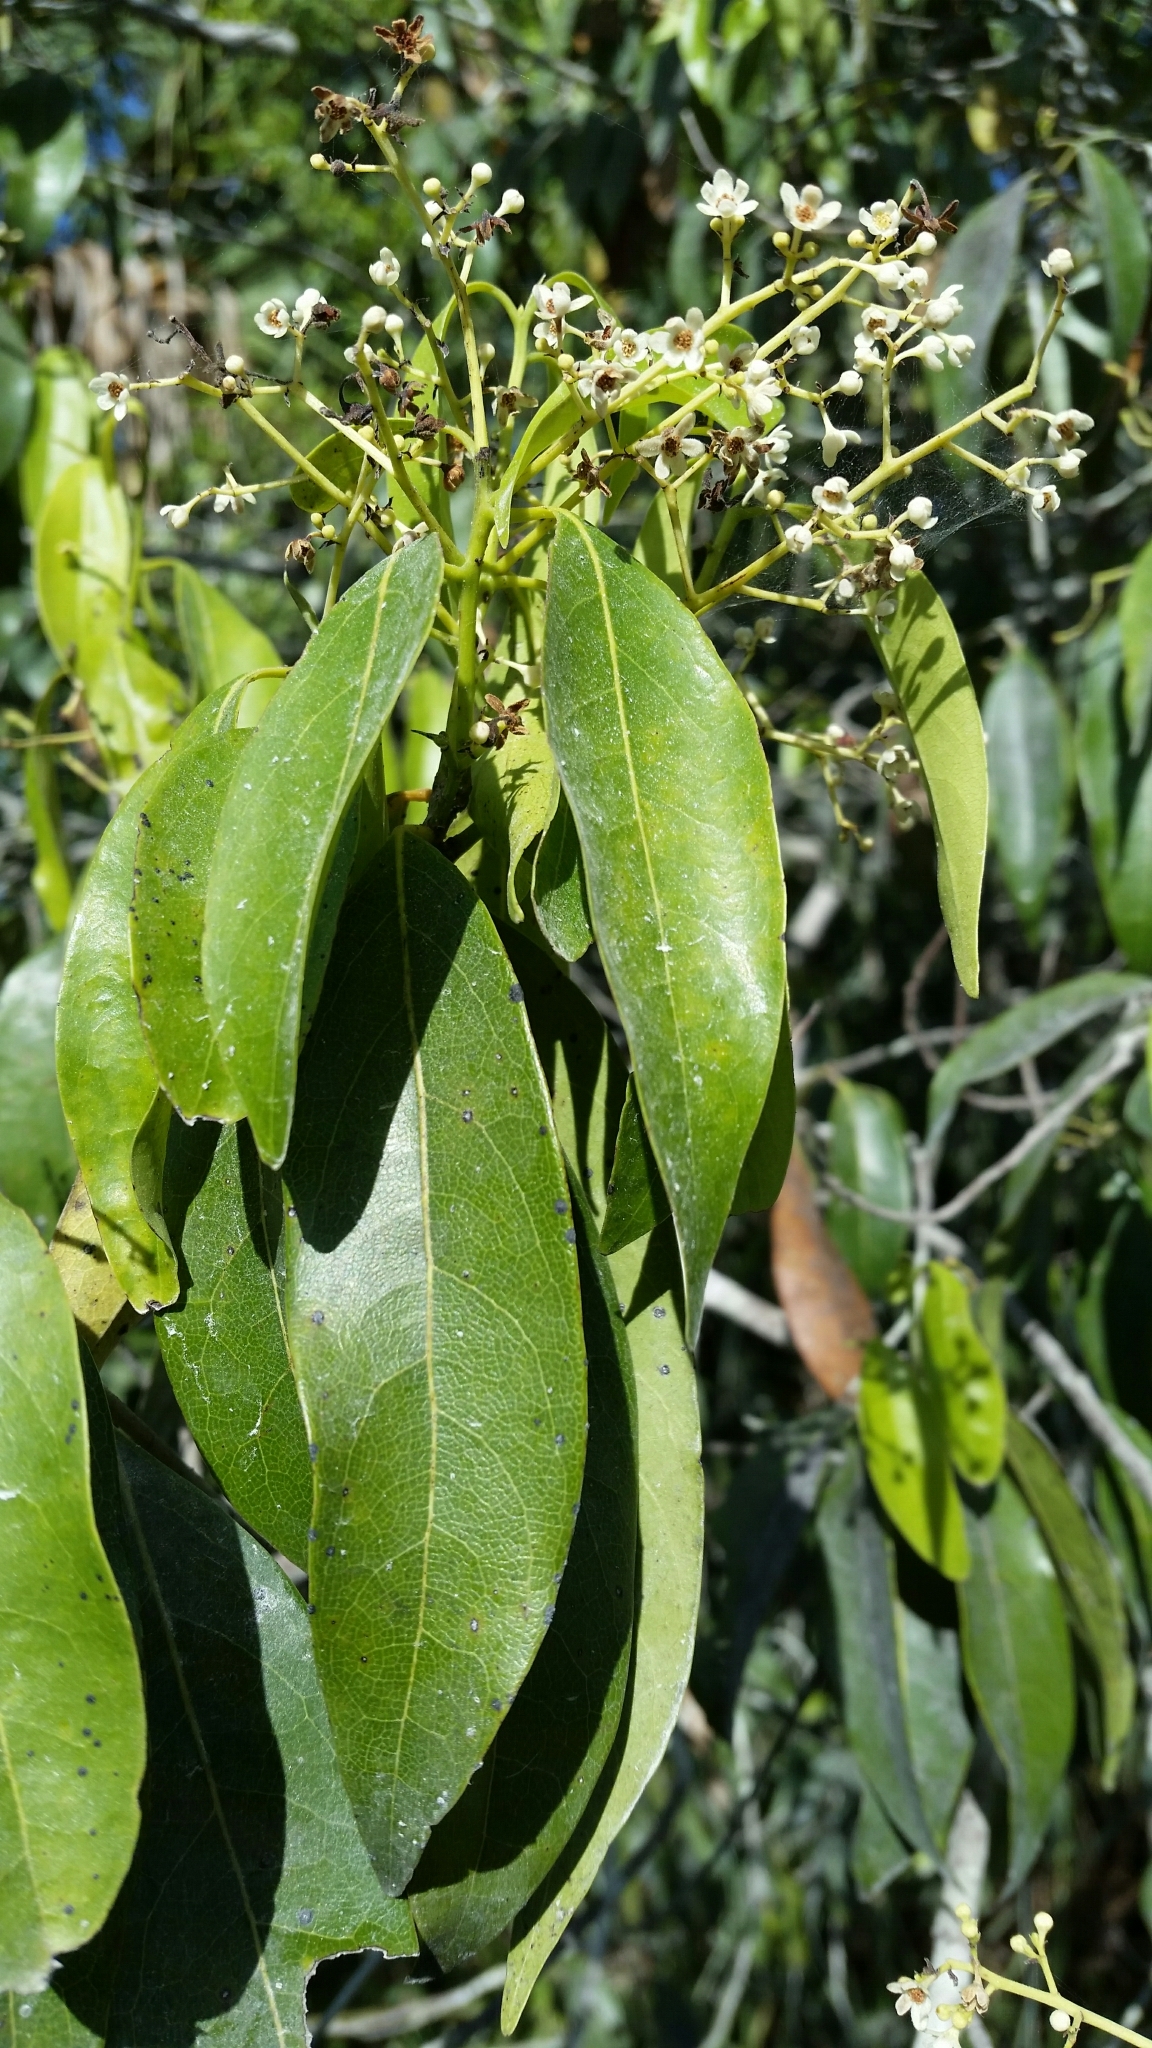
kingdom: Plantae
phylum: Tracheophyta
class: Magnoliopsida
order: Laurales
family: Lauraceae
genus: Damburneya
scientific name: Damburneya
